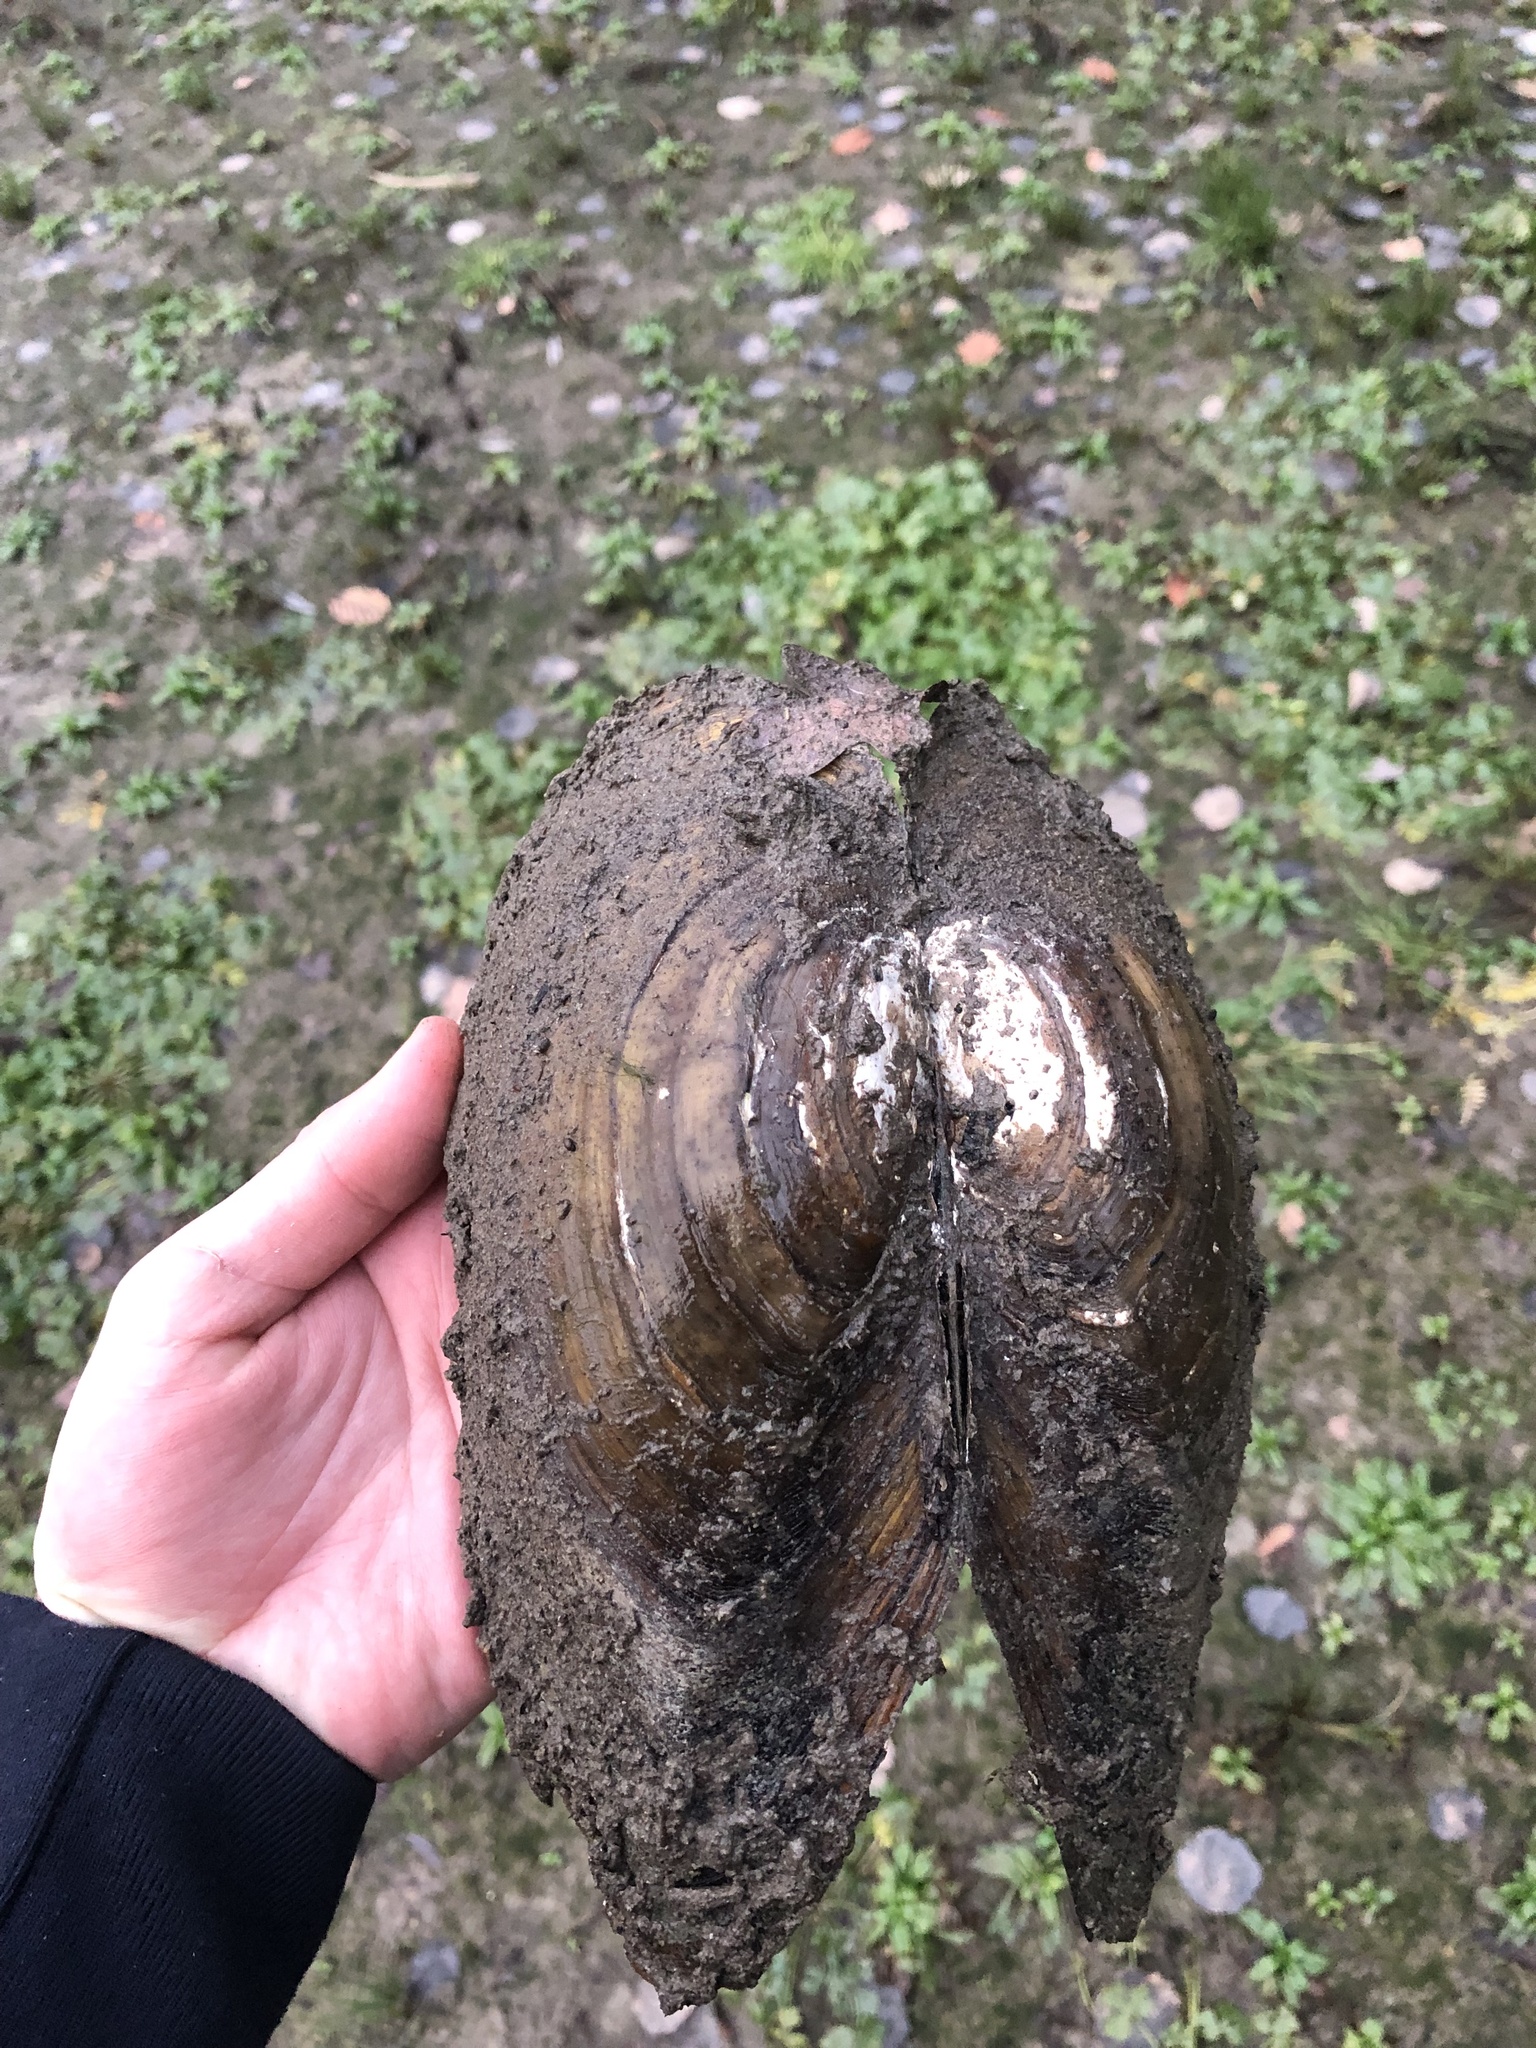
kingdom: Animalia
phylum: Mollusca
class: Bivalvia
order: Unionida
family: Unionidae
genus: Anodonta
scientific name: Anodonta cygnea
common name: Swan mussel
